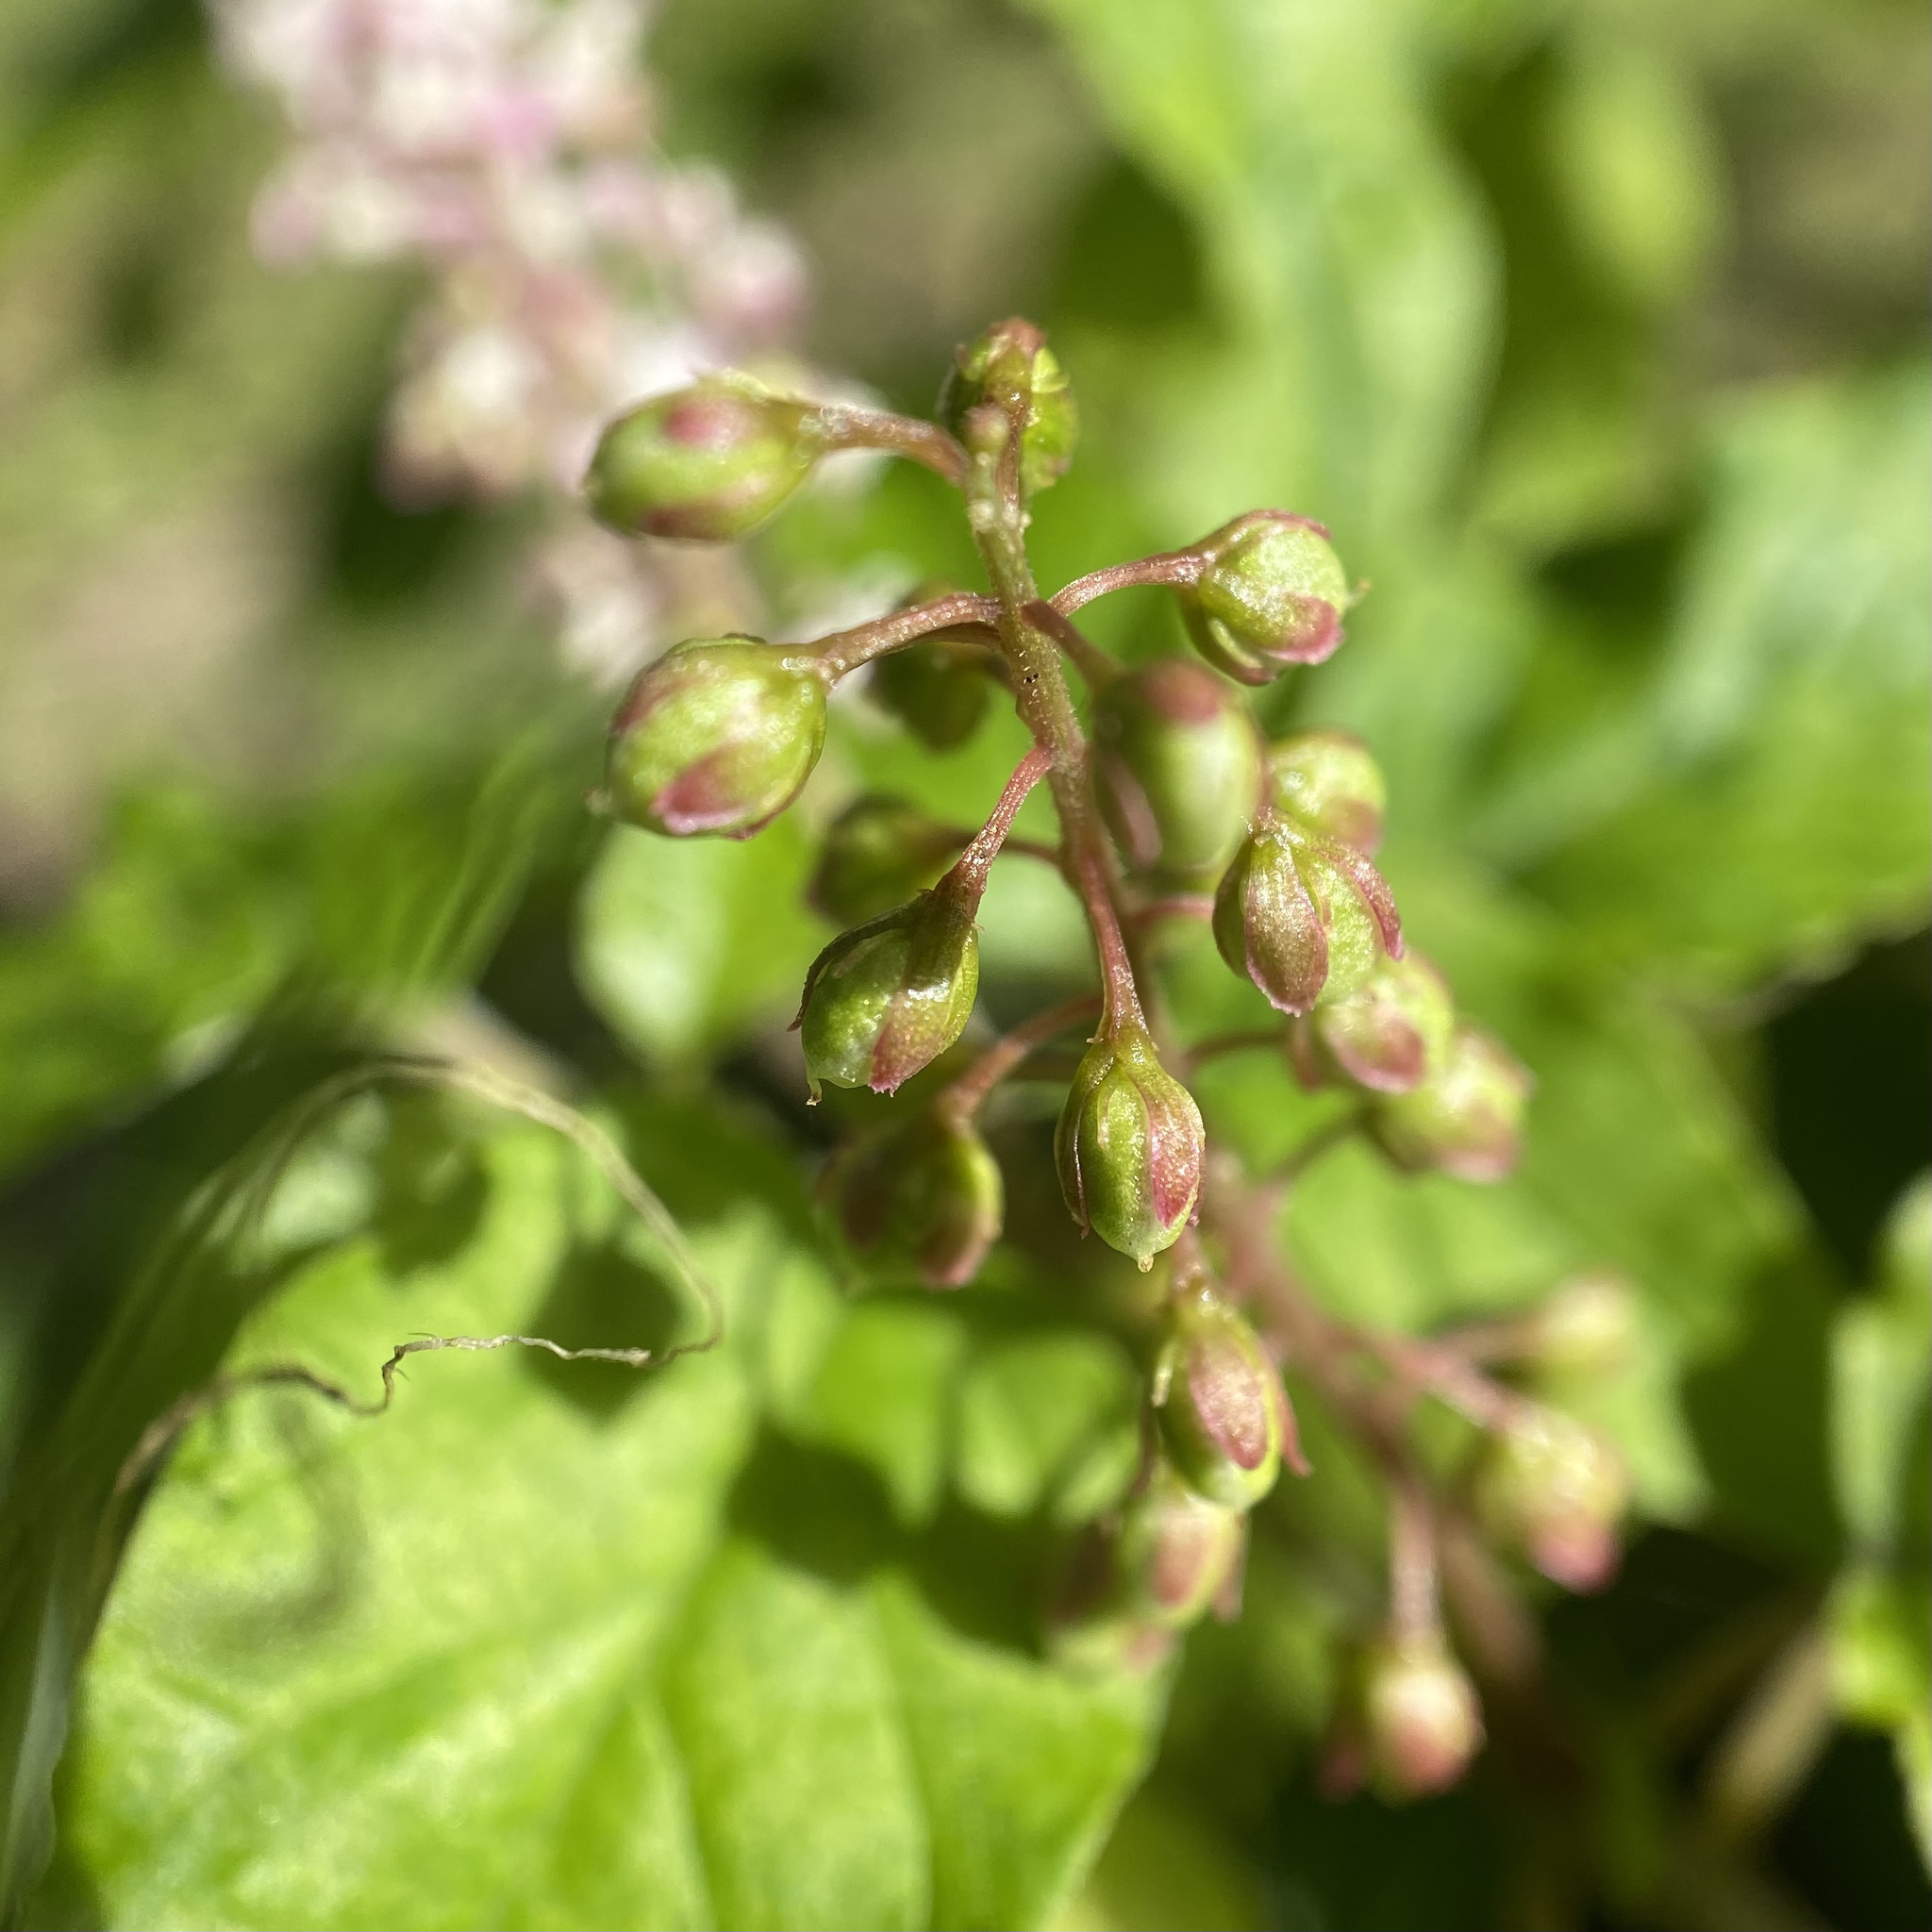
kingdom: Plantae
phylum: Tracheophyta
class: Magnoliopsida
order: Caryophyllales
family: Phytolaccaceae
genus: Rivina
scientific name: Rivina humilis
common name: Rougeplant
